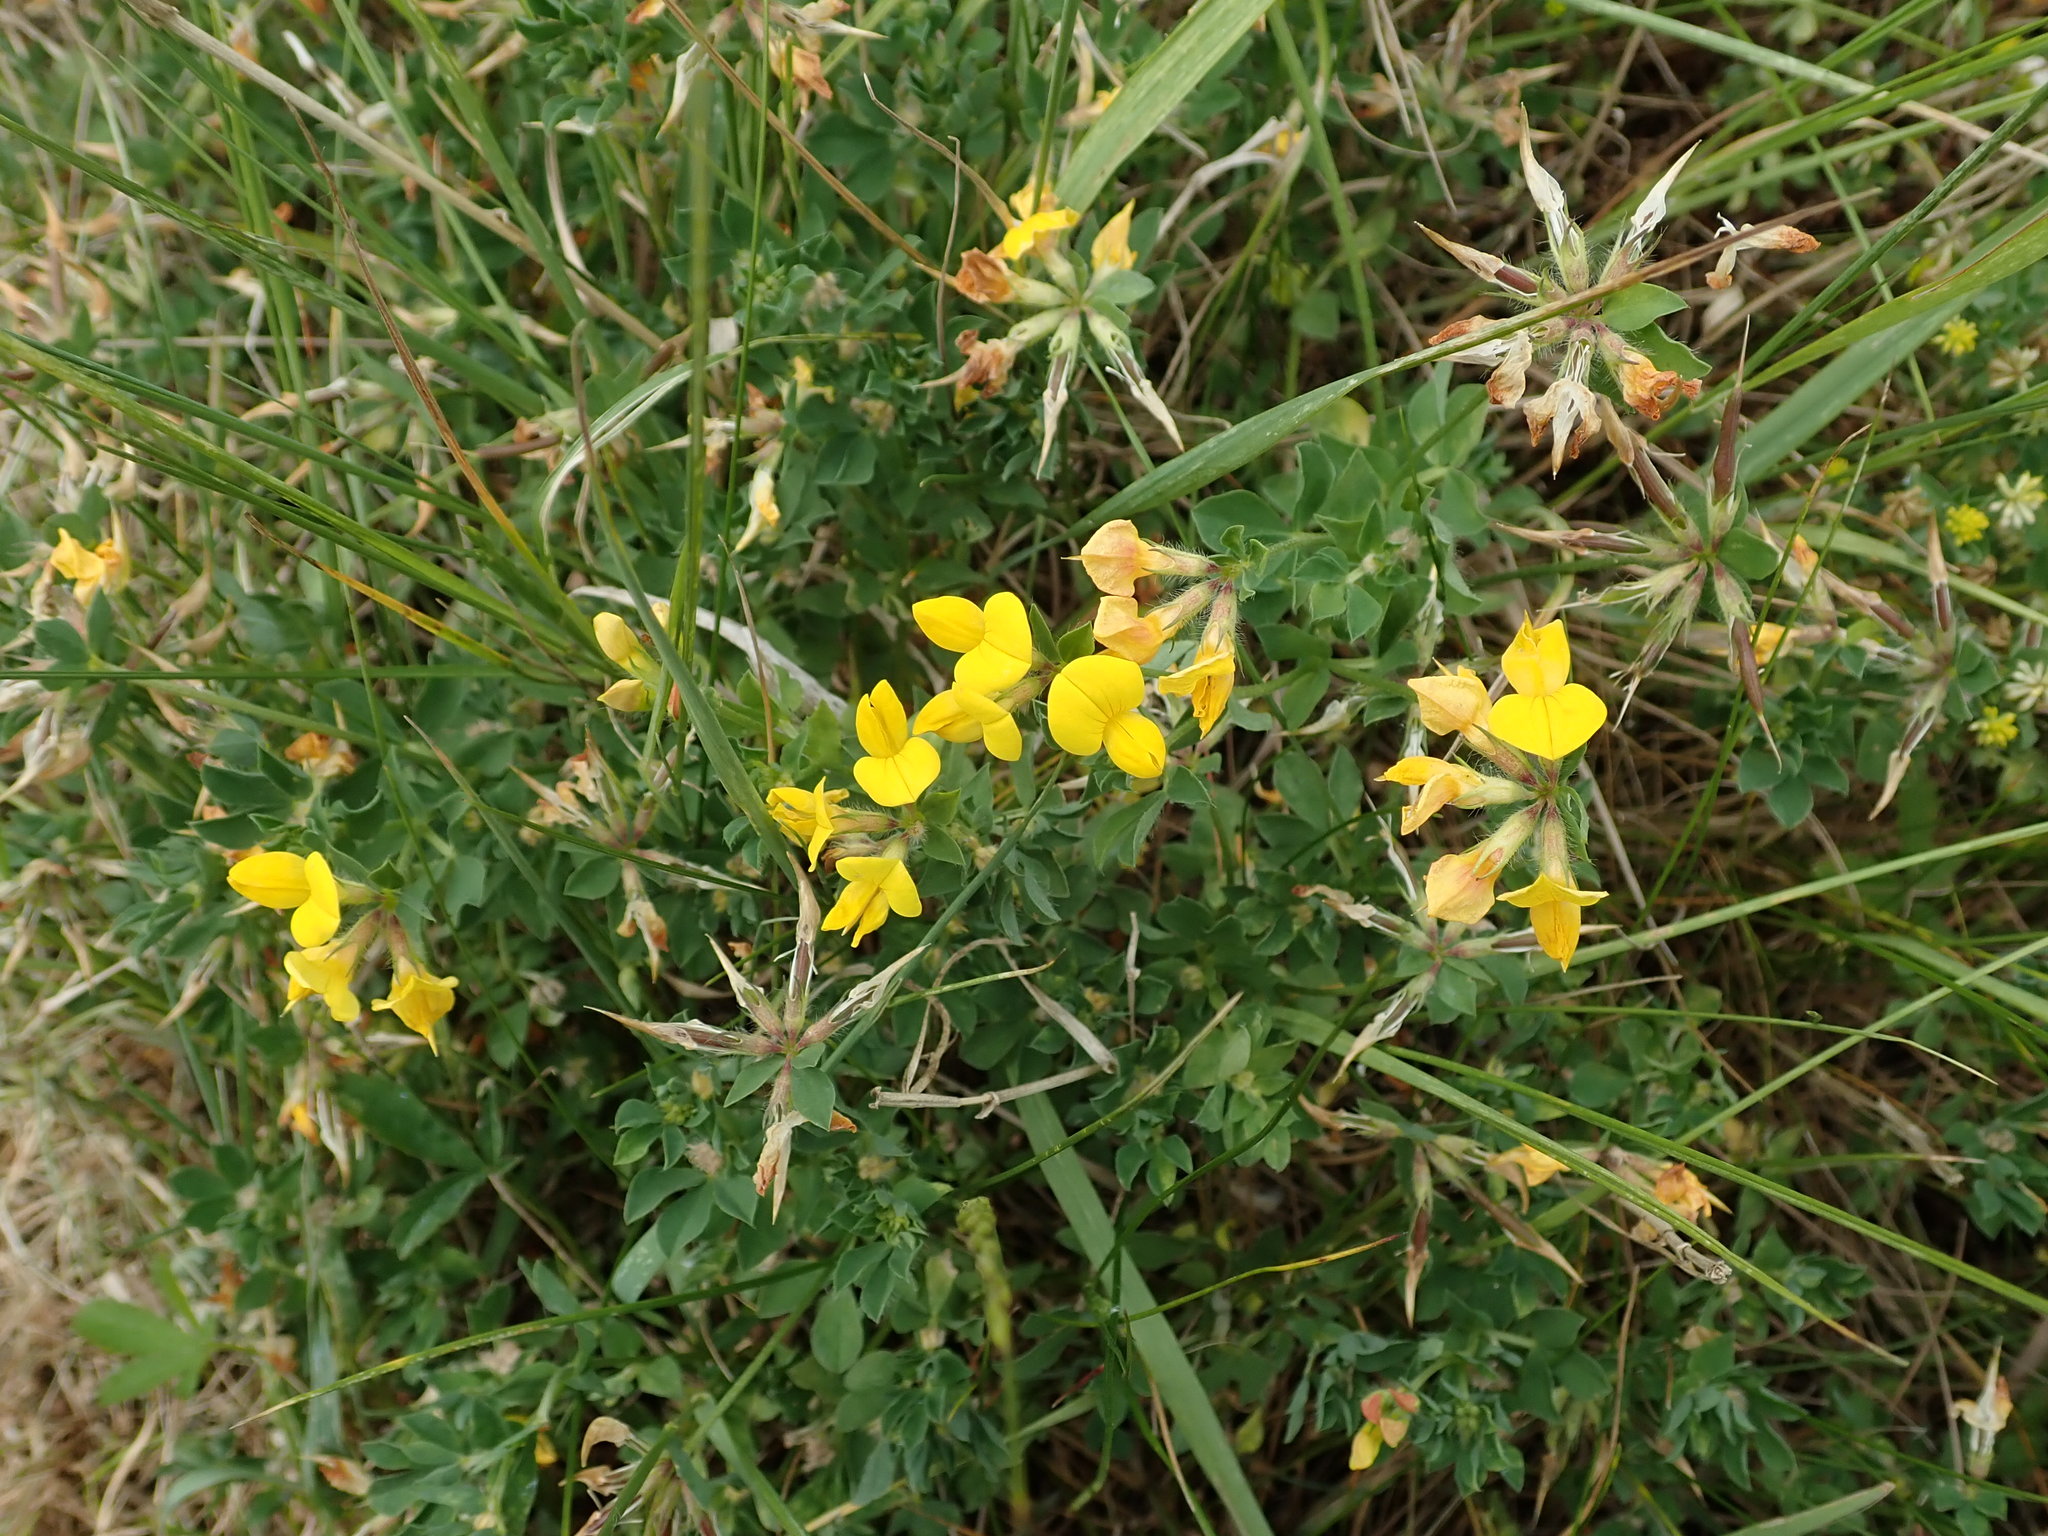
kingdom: Plantae
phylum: Tracheophyta
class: Magnoliopsida
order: Fabales
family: Fabaceae
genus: Lotus
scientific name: Lotus corniculatus
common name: Common bird's-foot-trefoil
